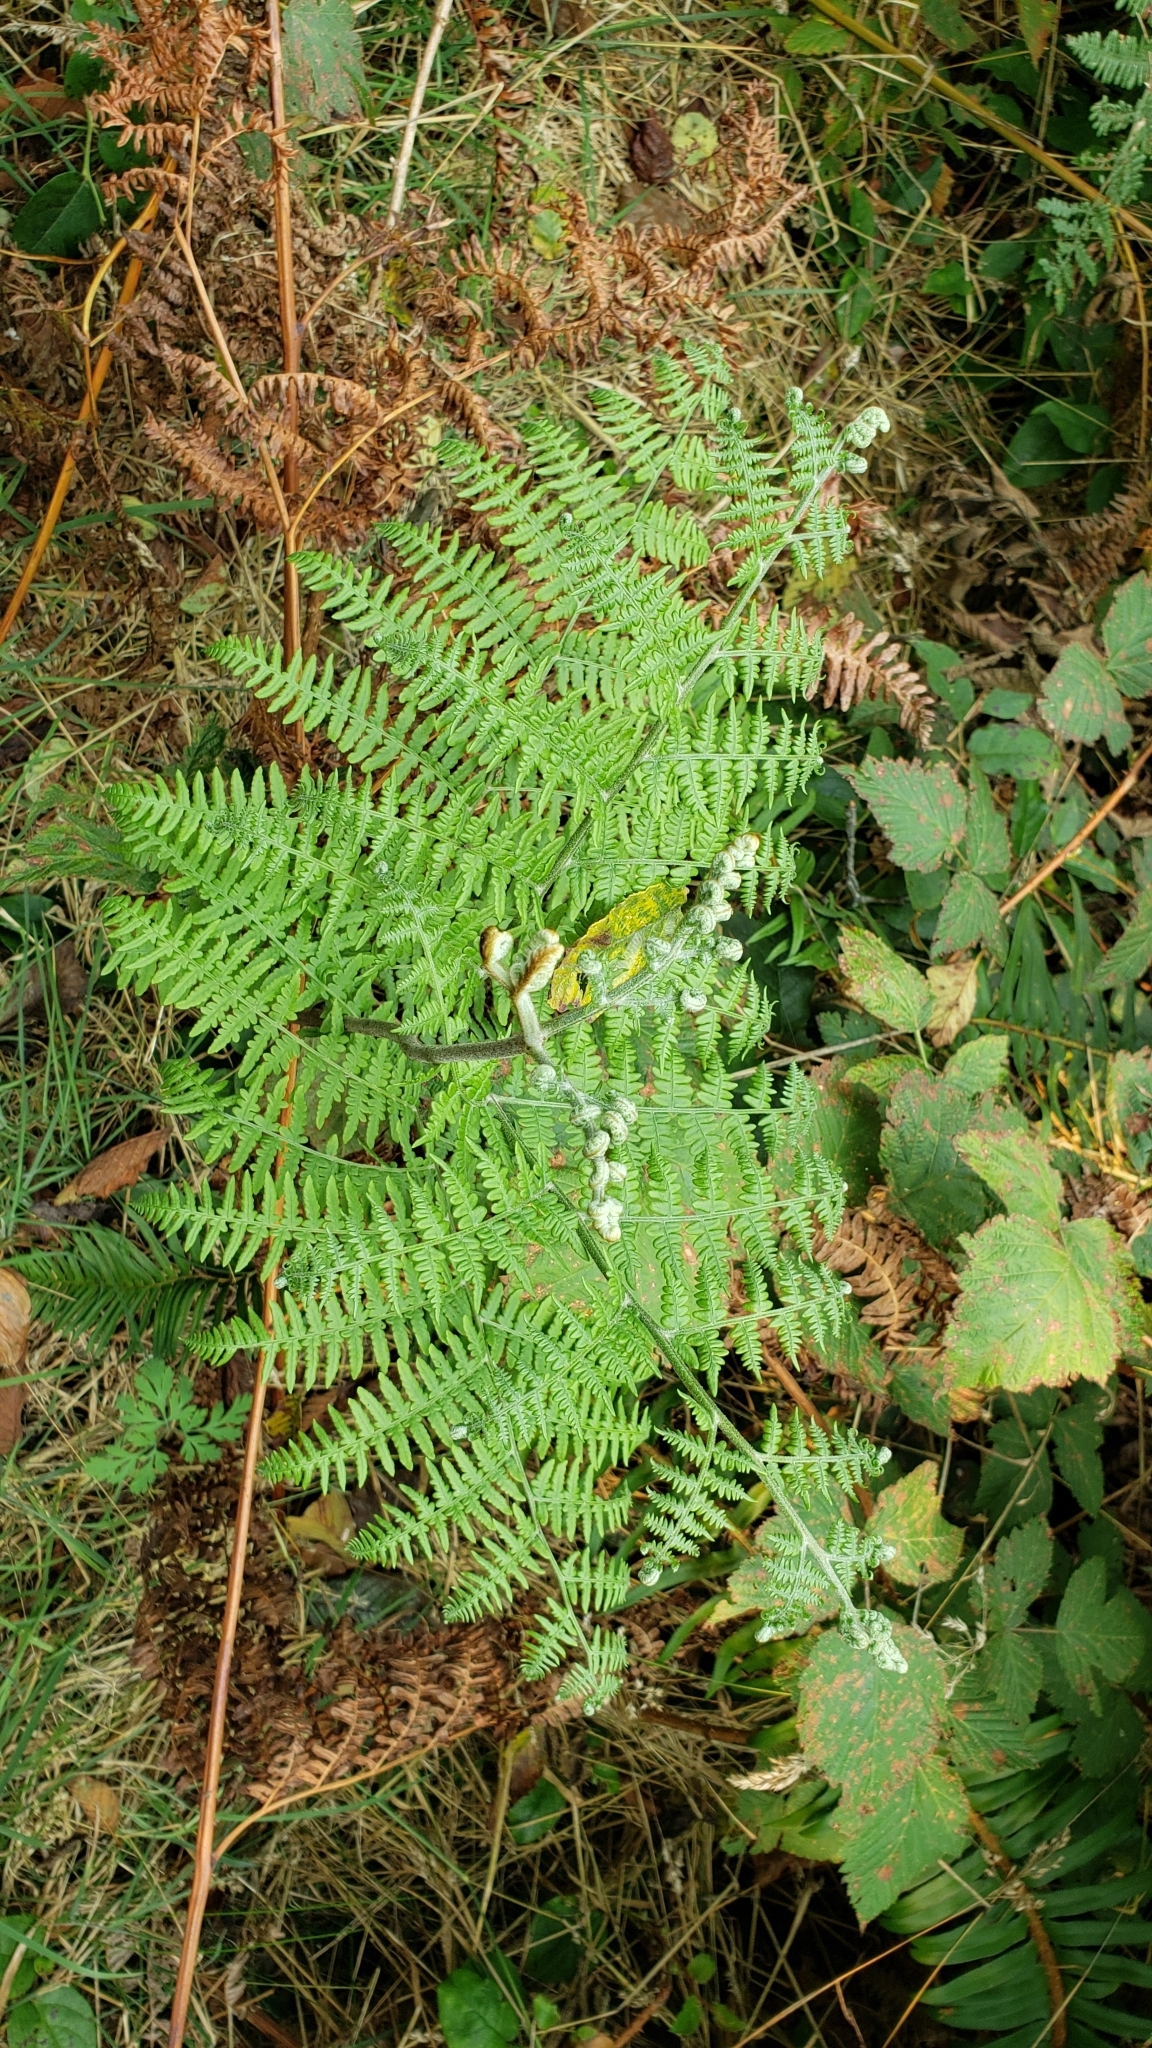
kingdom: Plantae
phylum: Tracheophyta
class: Polypodiopsida
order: Polypodiales
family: Dennstaedtiaceae
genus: Pteridium
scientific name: Pteridium aquilinum
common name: Bracken
